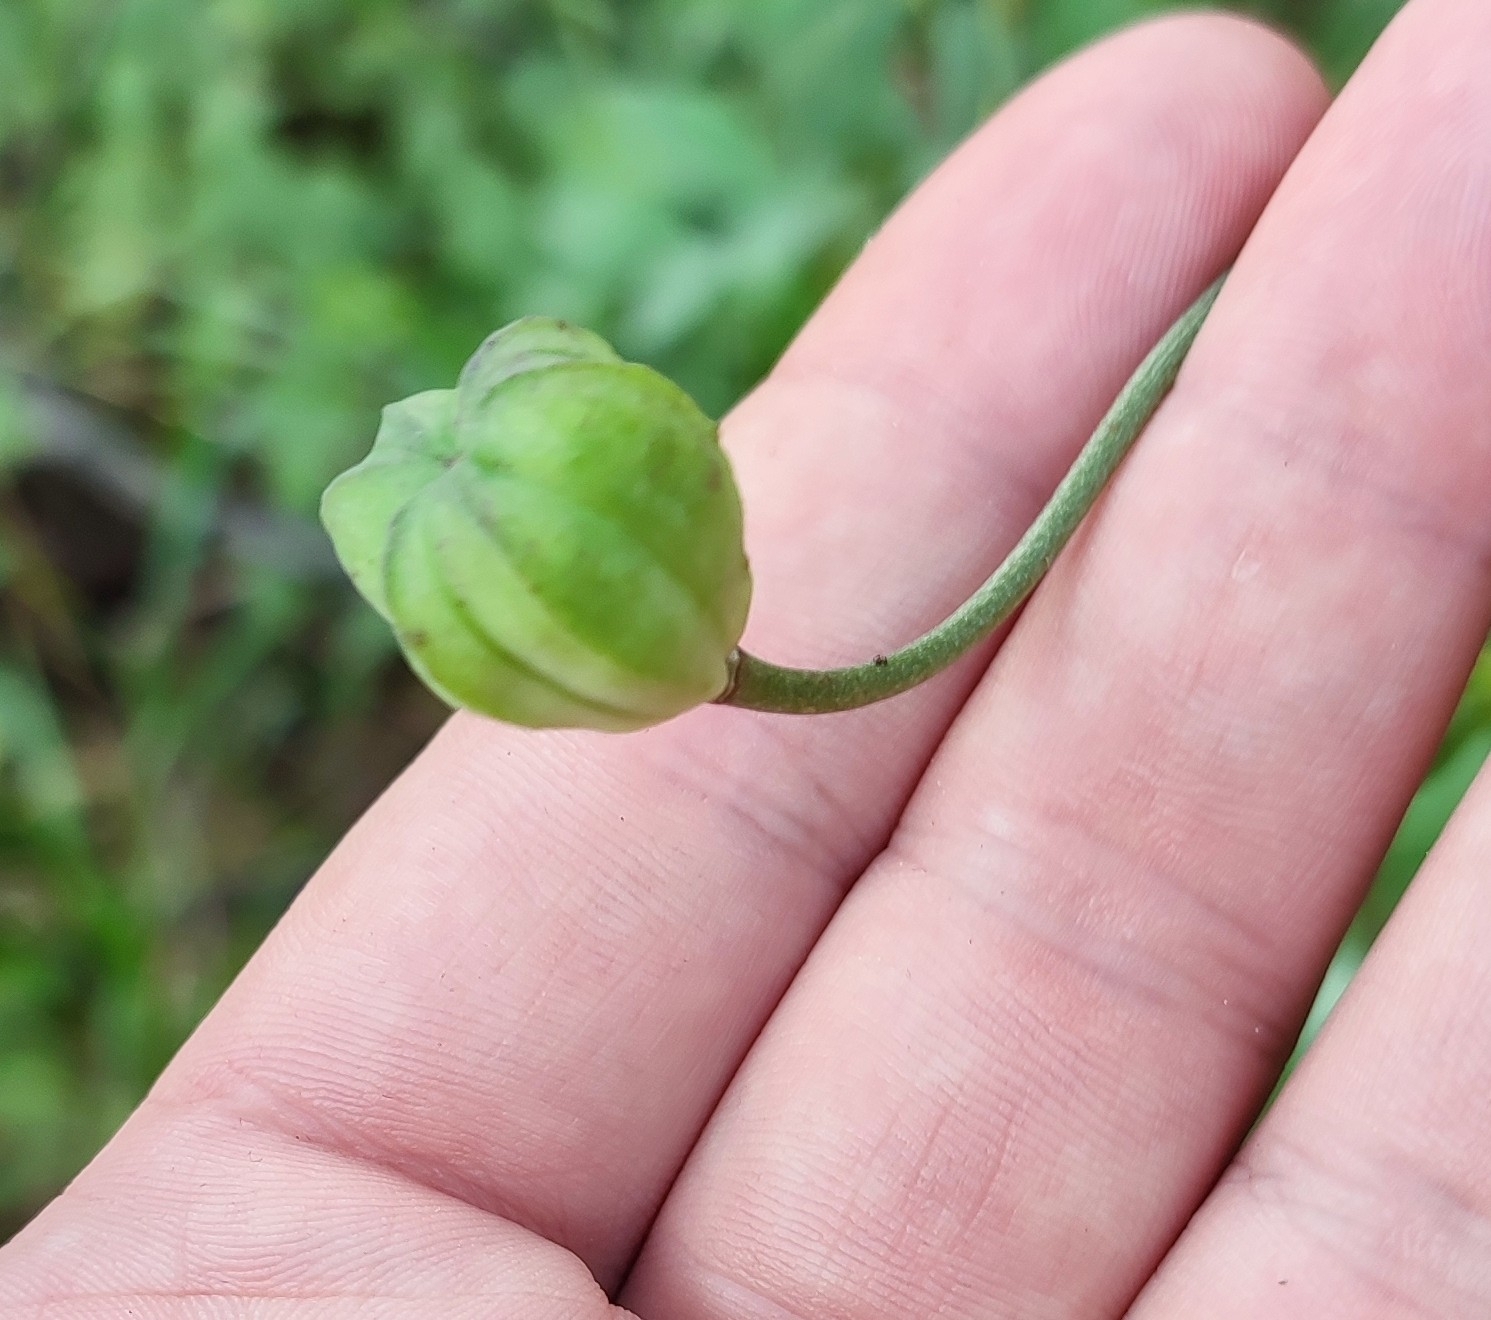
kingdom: Plantae
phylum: Tracheophyta
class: Liliopsida
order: Liliales
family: Liliaceae
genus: Lilium
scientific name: Lilium martagon
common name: Martagon lily
